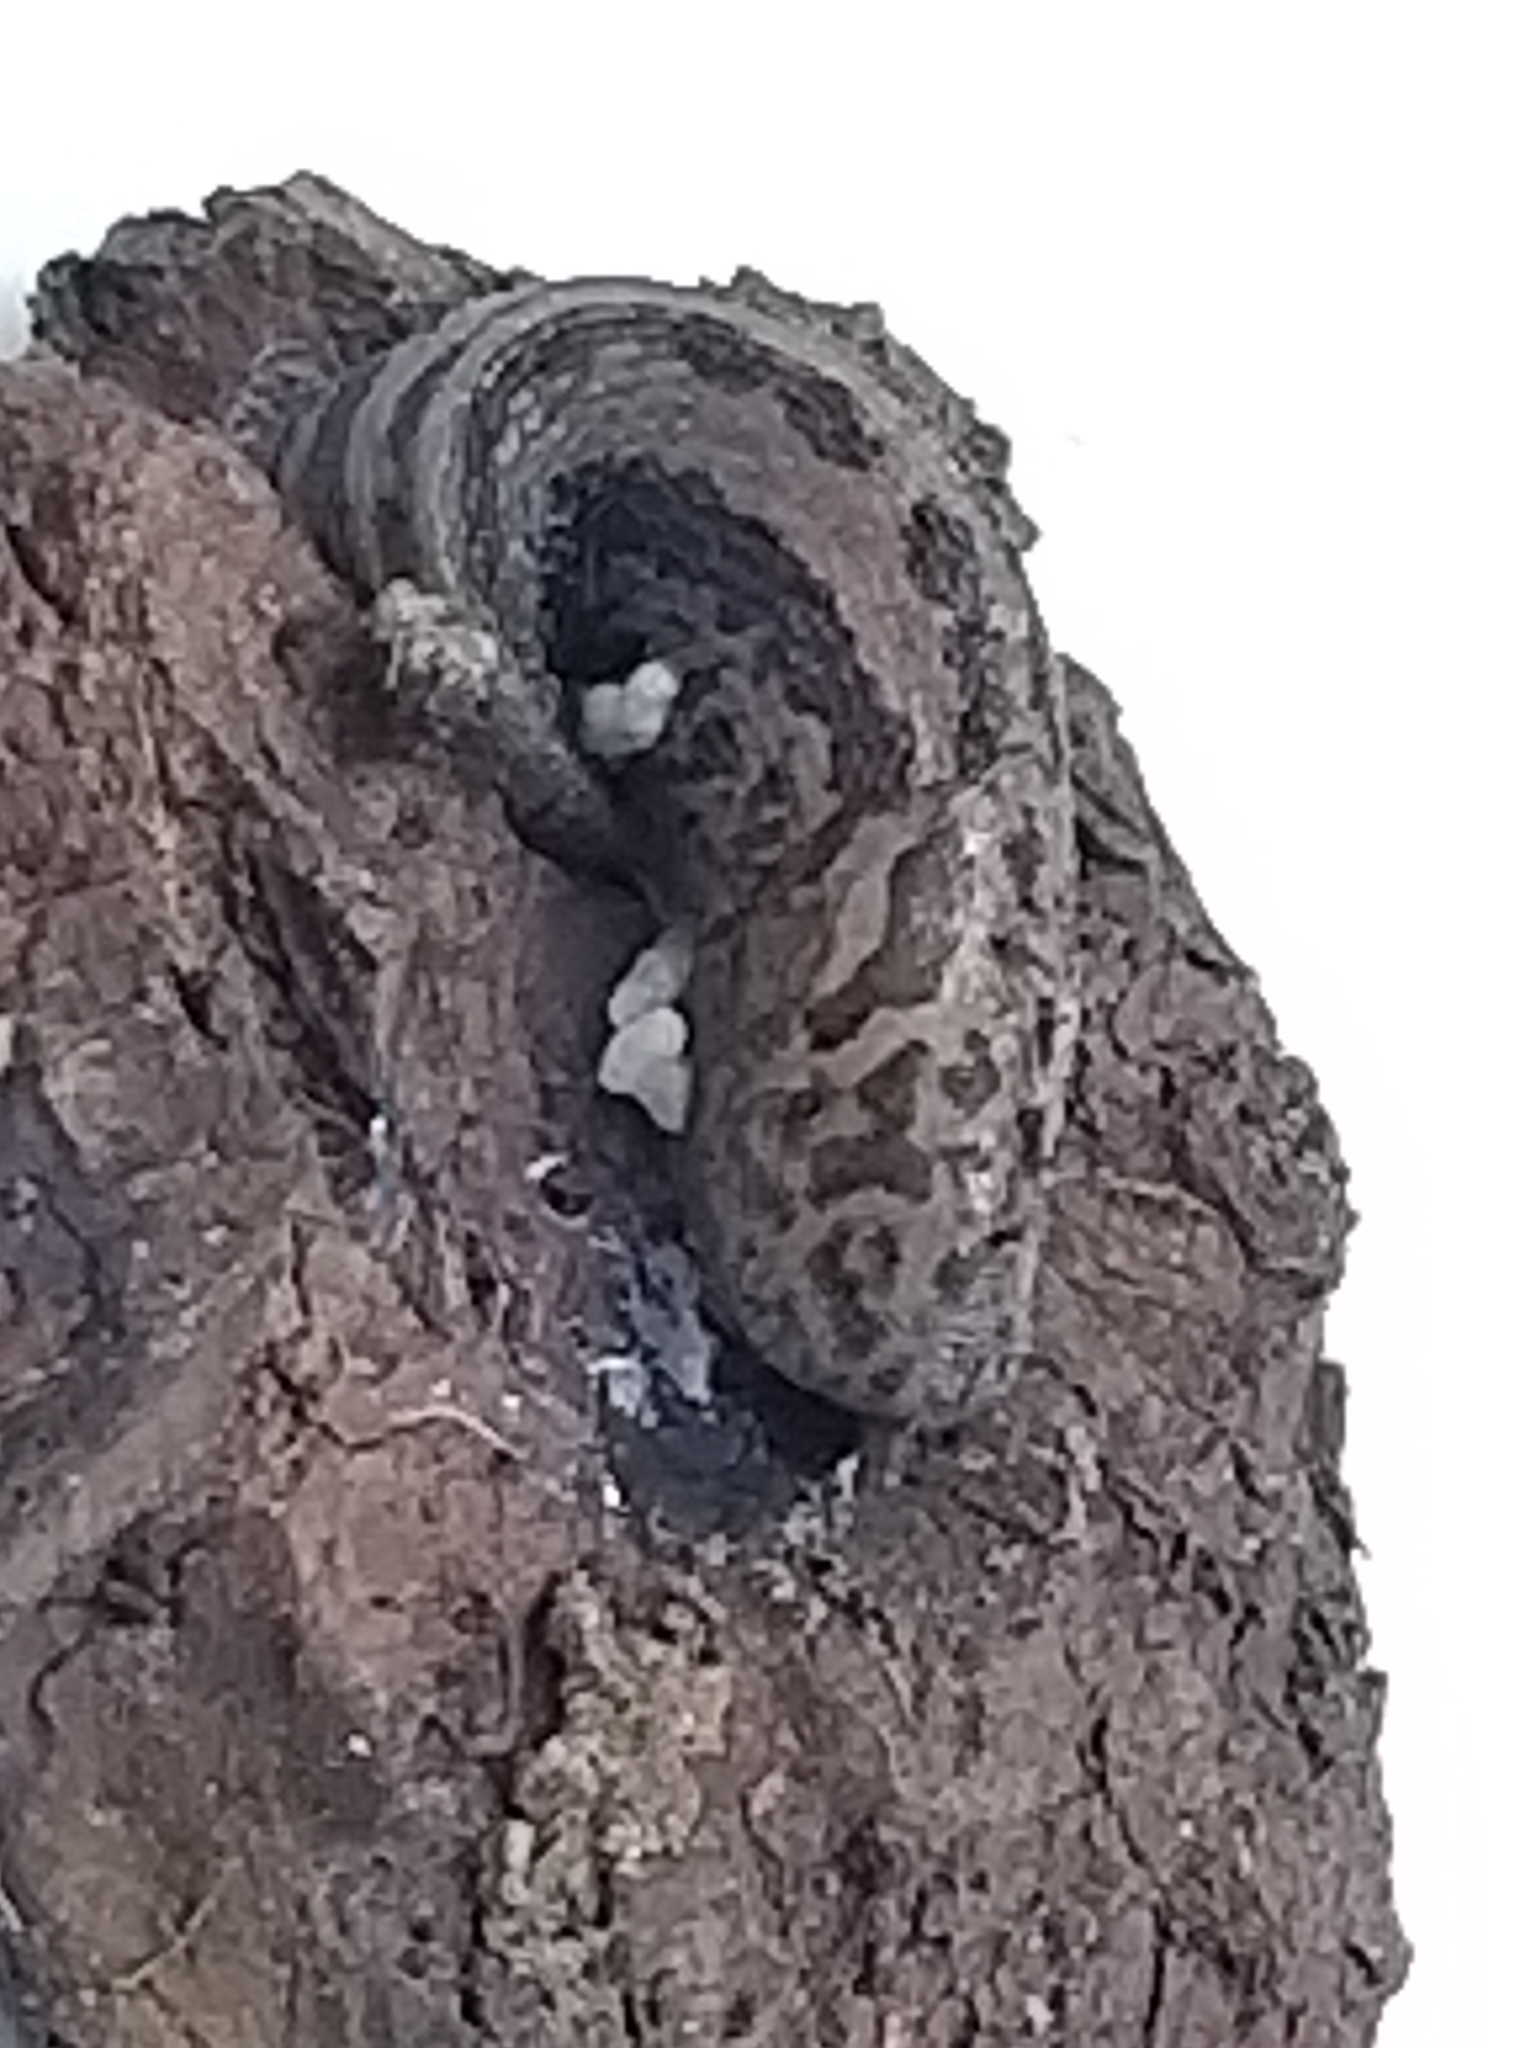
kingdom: Animalia
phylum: Mollusca
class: Gastropoda
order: Stylommatophora
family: Limacidae
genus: Limax
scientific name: Limax maximus
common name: Great grey slug
